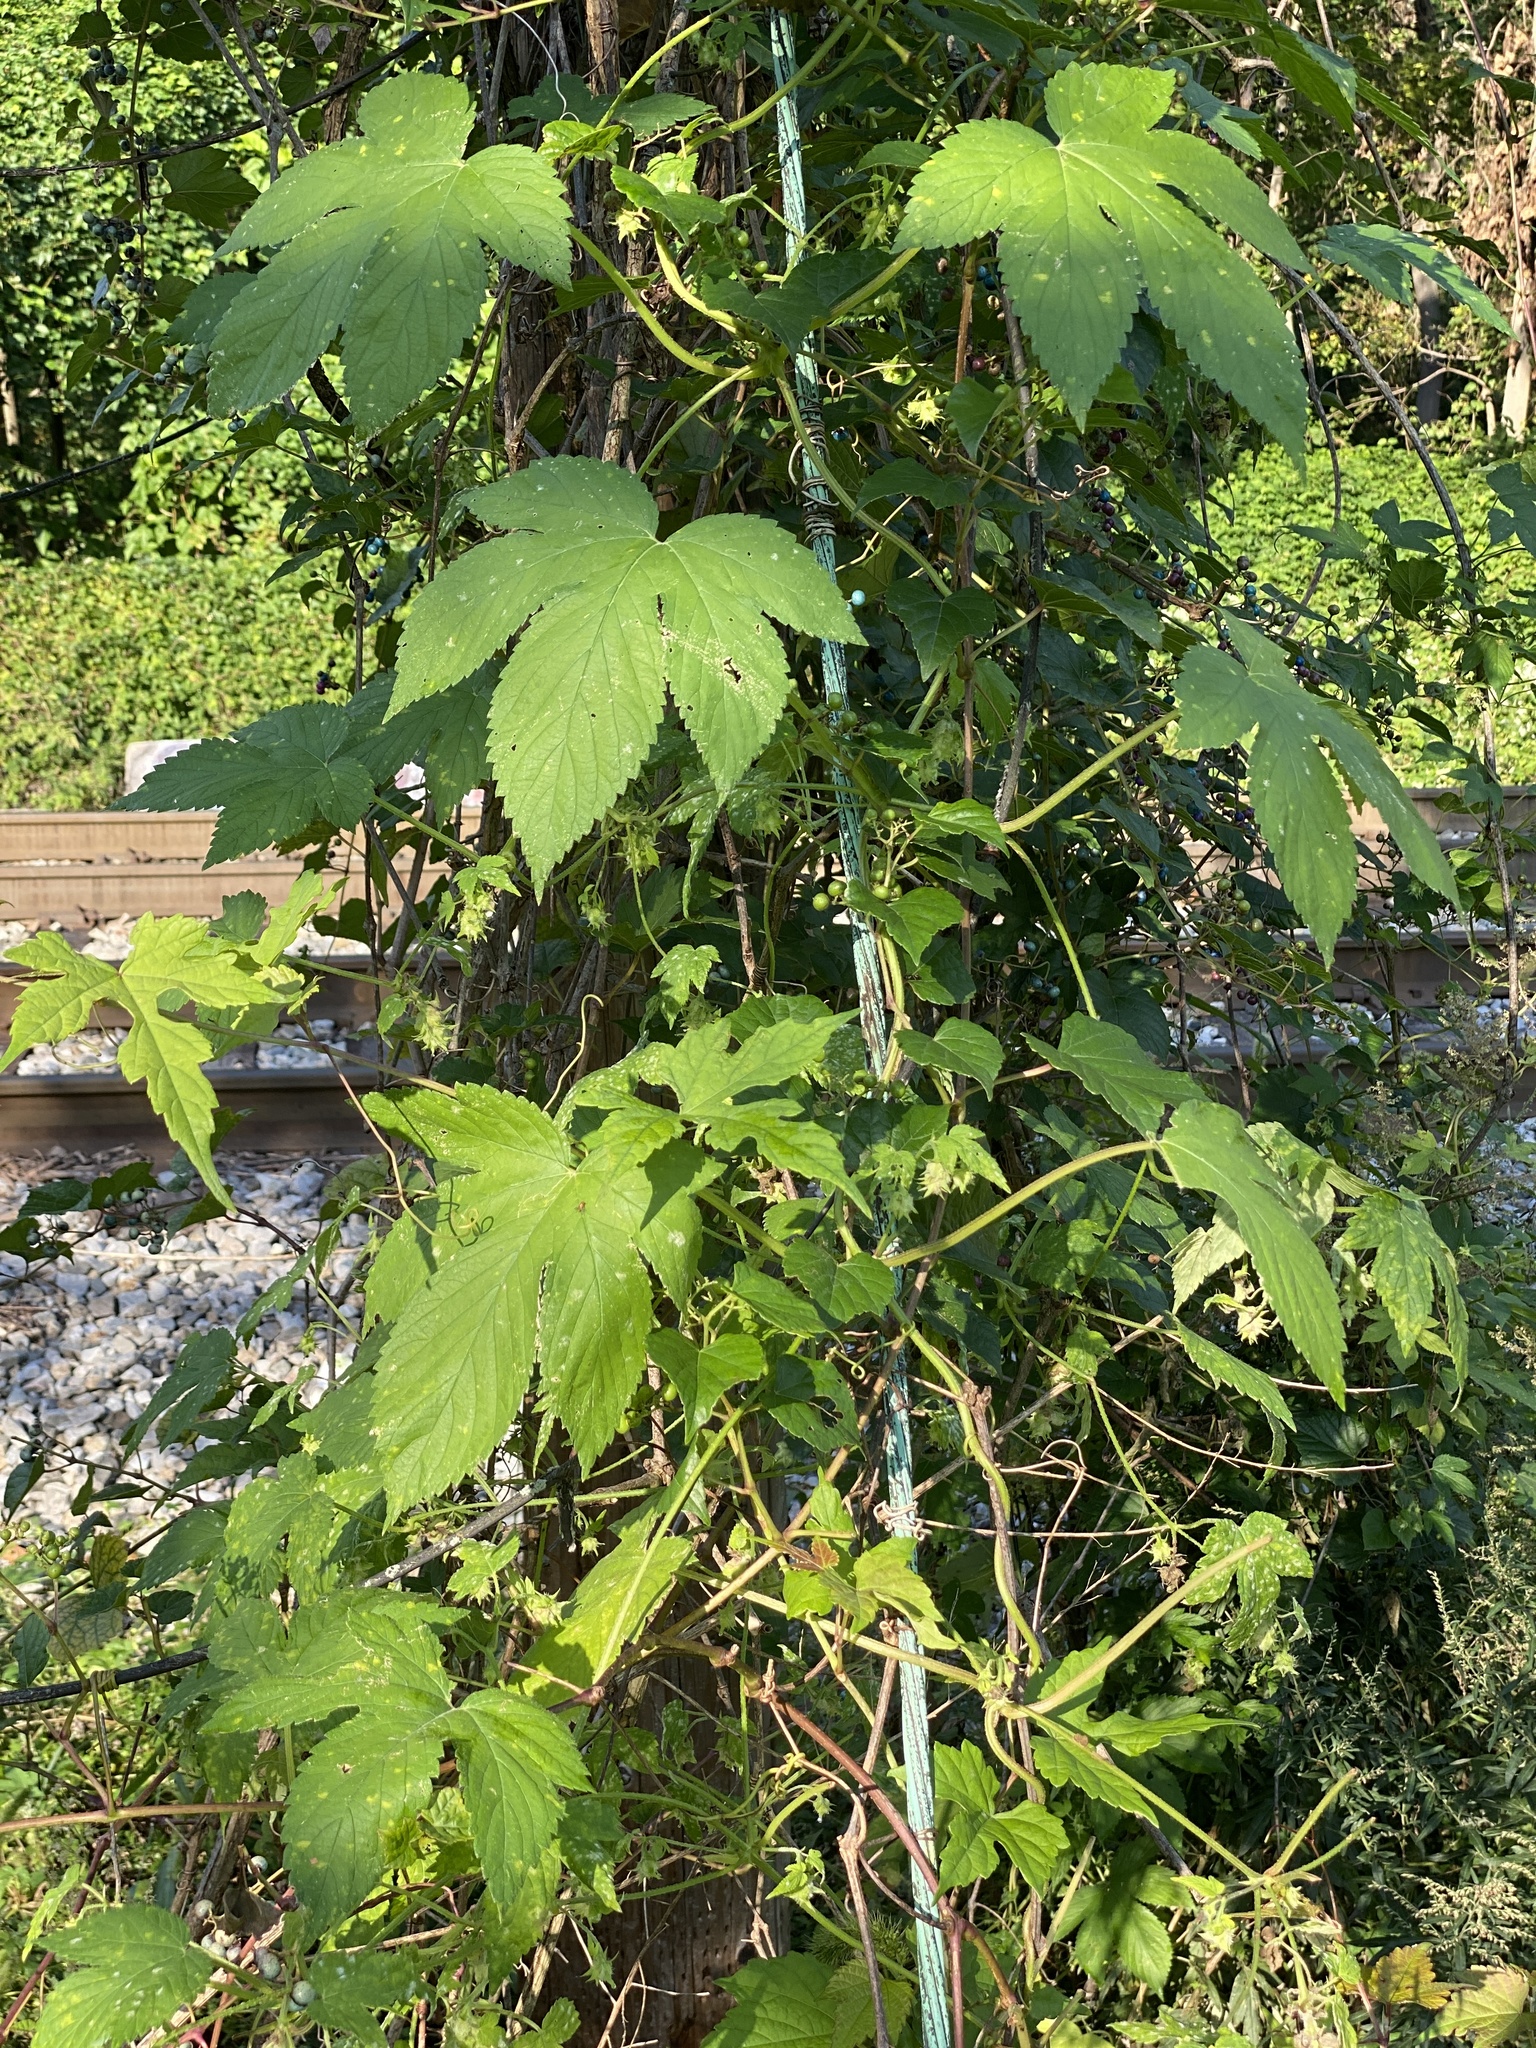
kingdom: Plantae
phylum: Tracheophyta
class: Magnoliopsida
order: Rosales
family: Cannabaceae
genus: Humulus
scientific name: Humulus scandens
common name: Japanese hop
